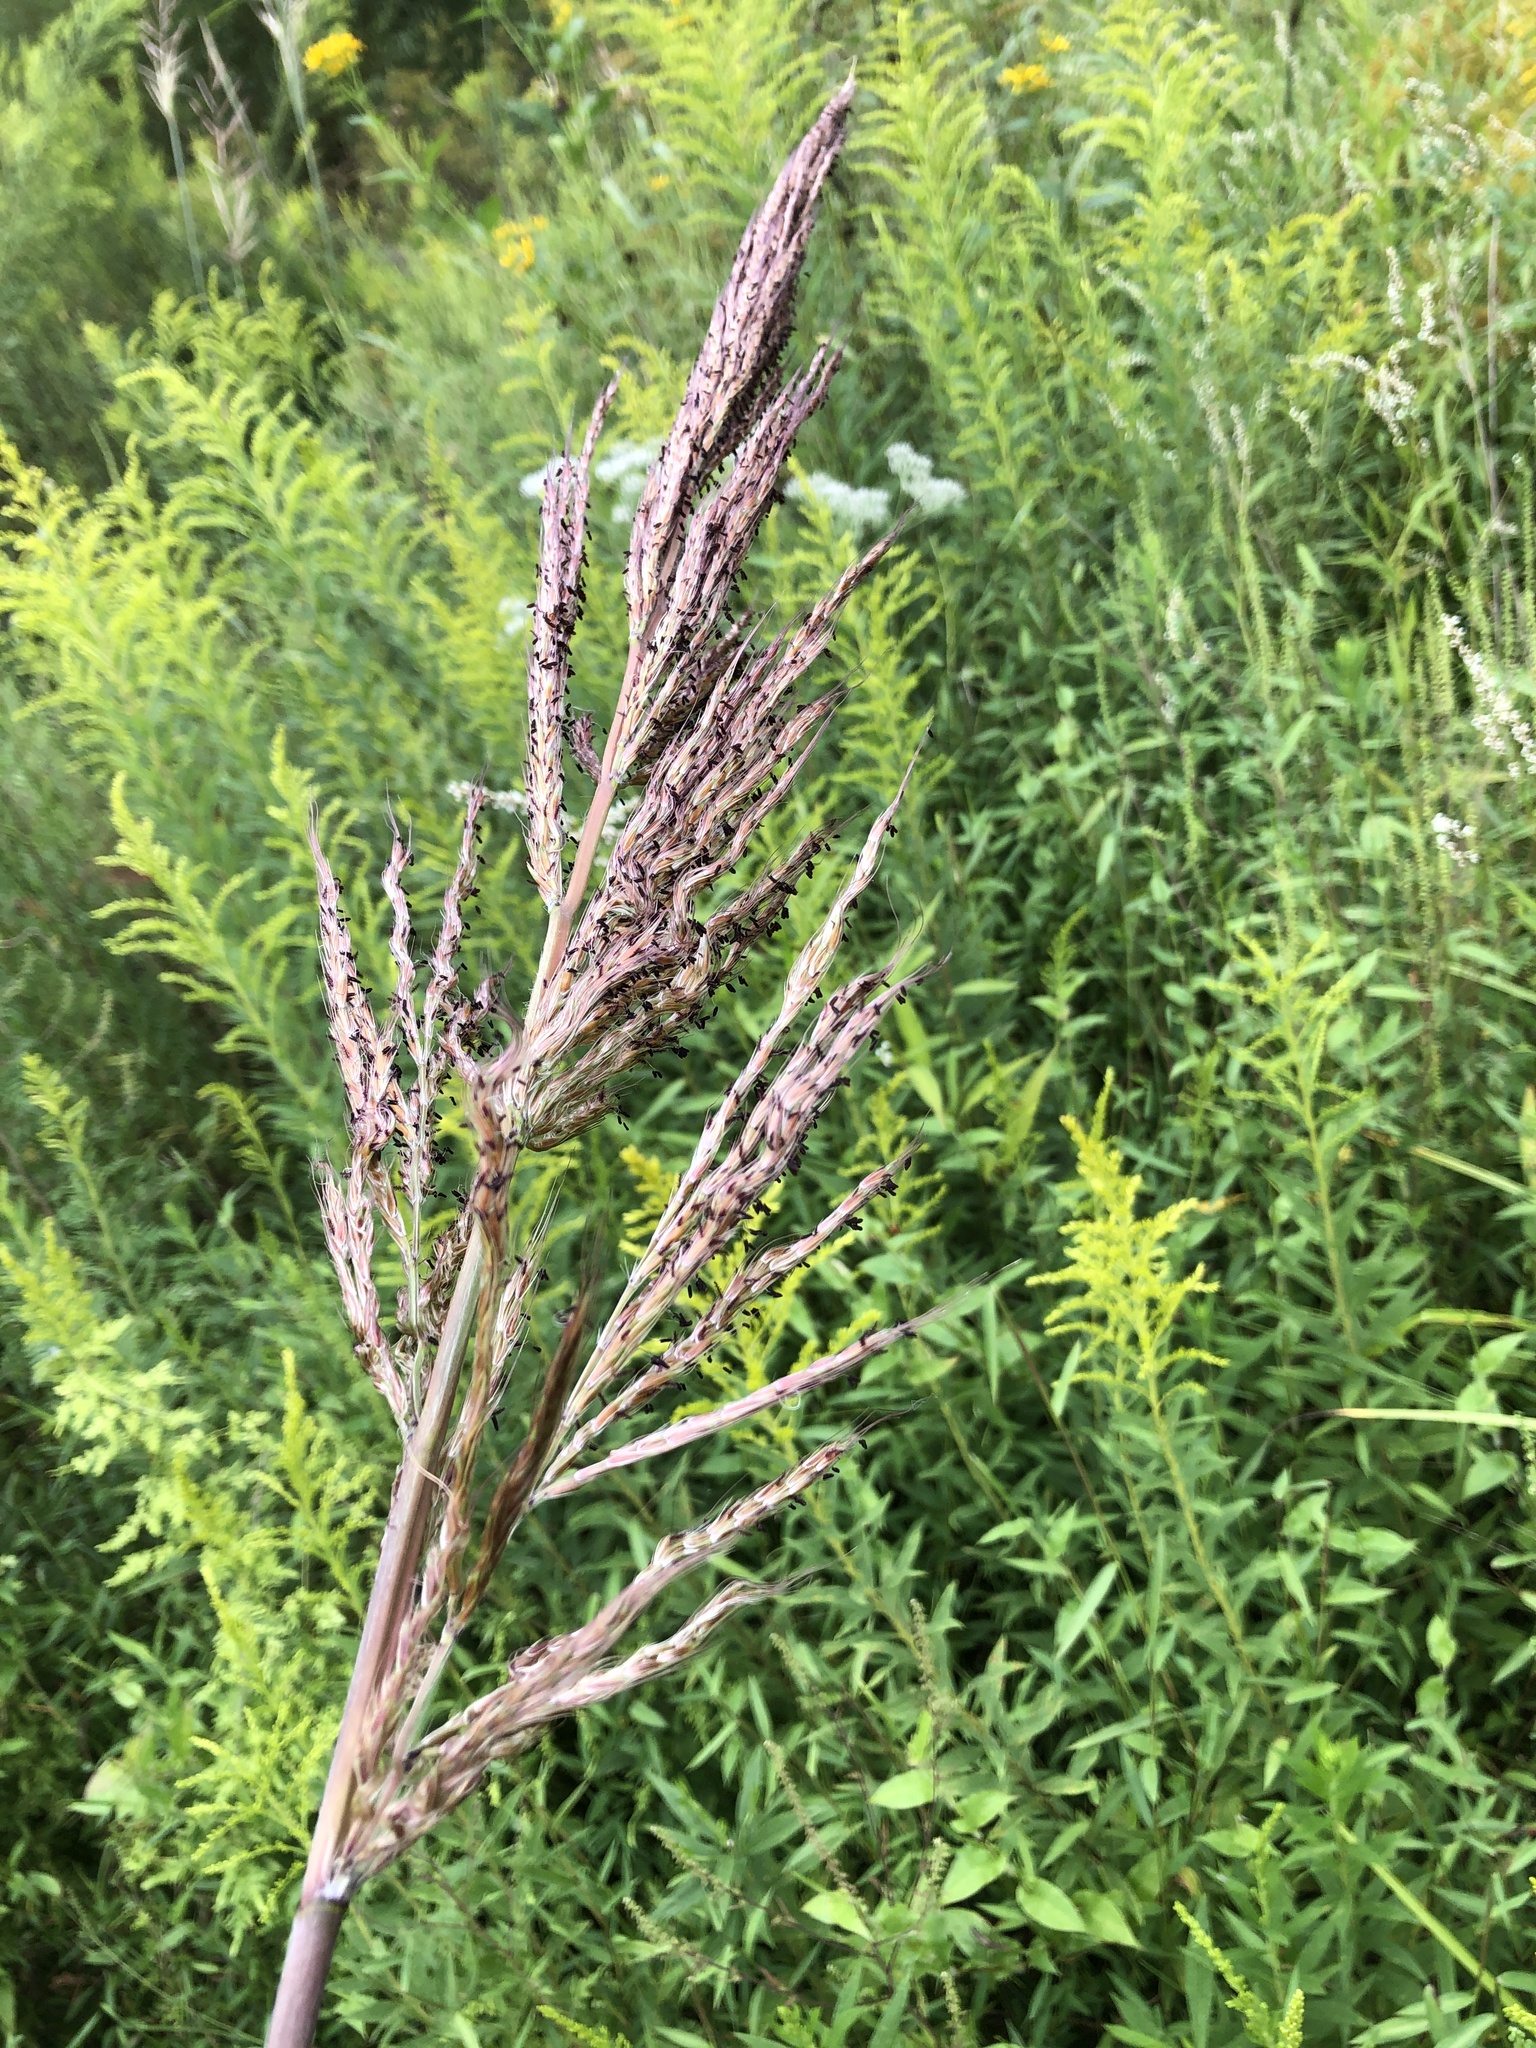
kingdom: Plantae
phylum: Tracheophyta
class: Liliopsida
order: Poales
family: Poaceae
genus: Erianthus
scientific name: Erianthus alopecuroides
